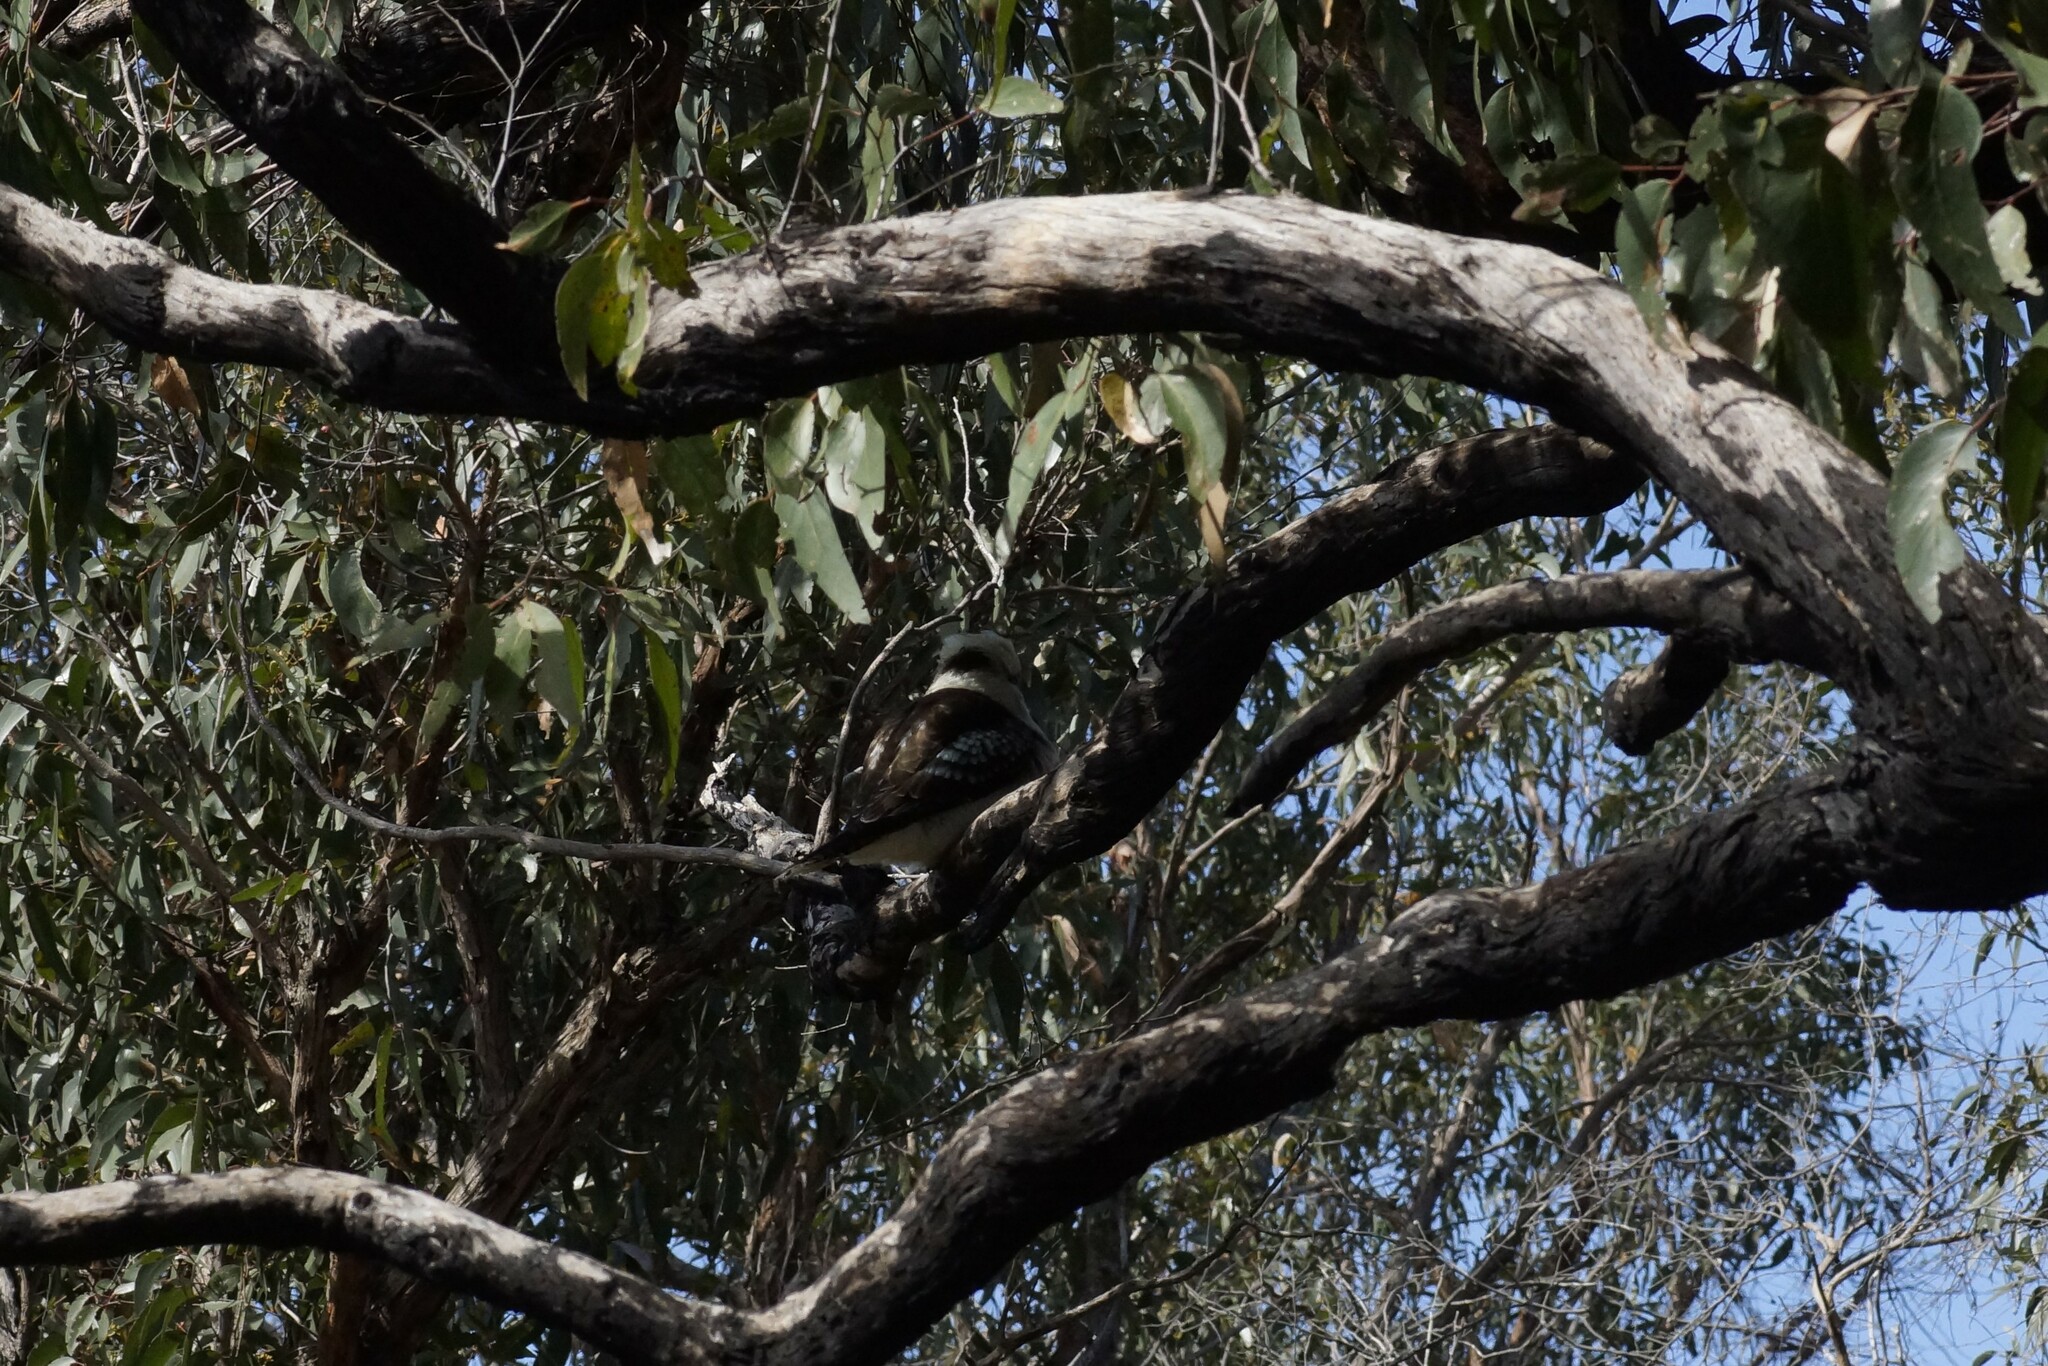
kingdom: Animalia
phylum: Chordata
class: Aves
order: Coraciiformes
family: Alcedinidae
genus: Dacelo
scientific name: Dacelo novaeguineae
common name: Laughing kookaburra
